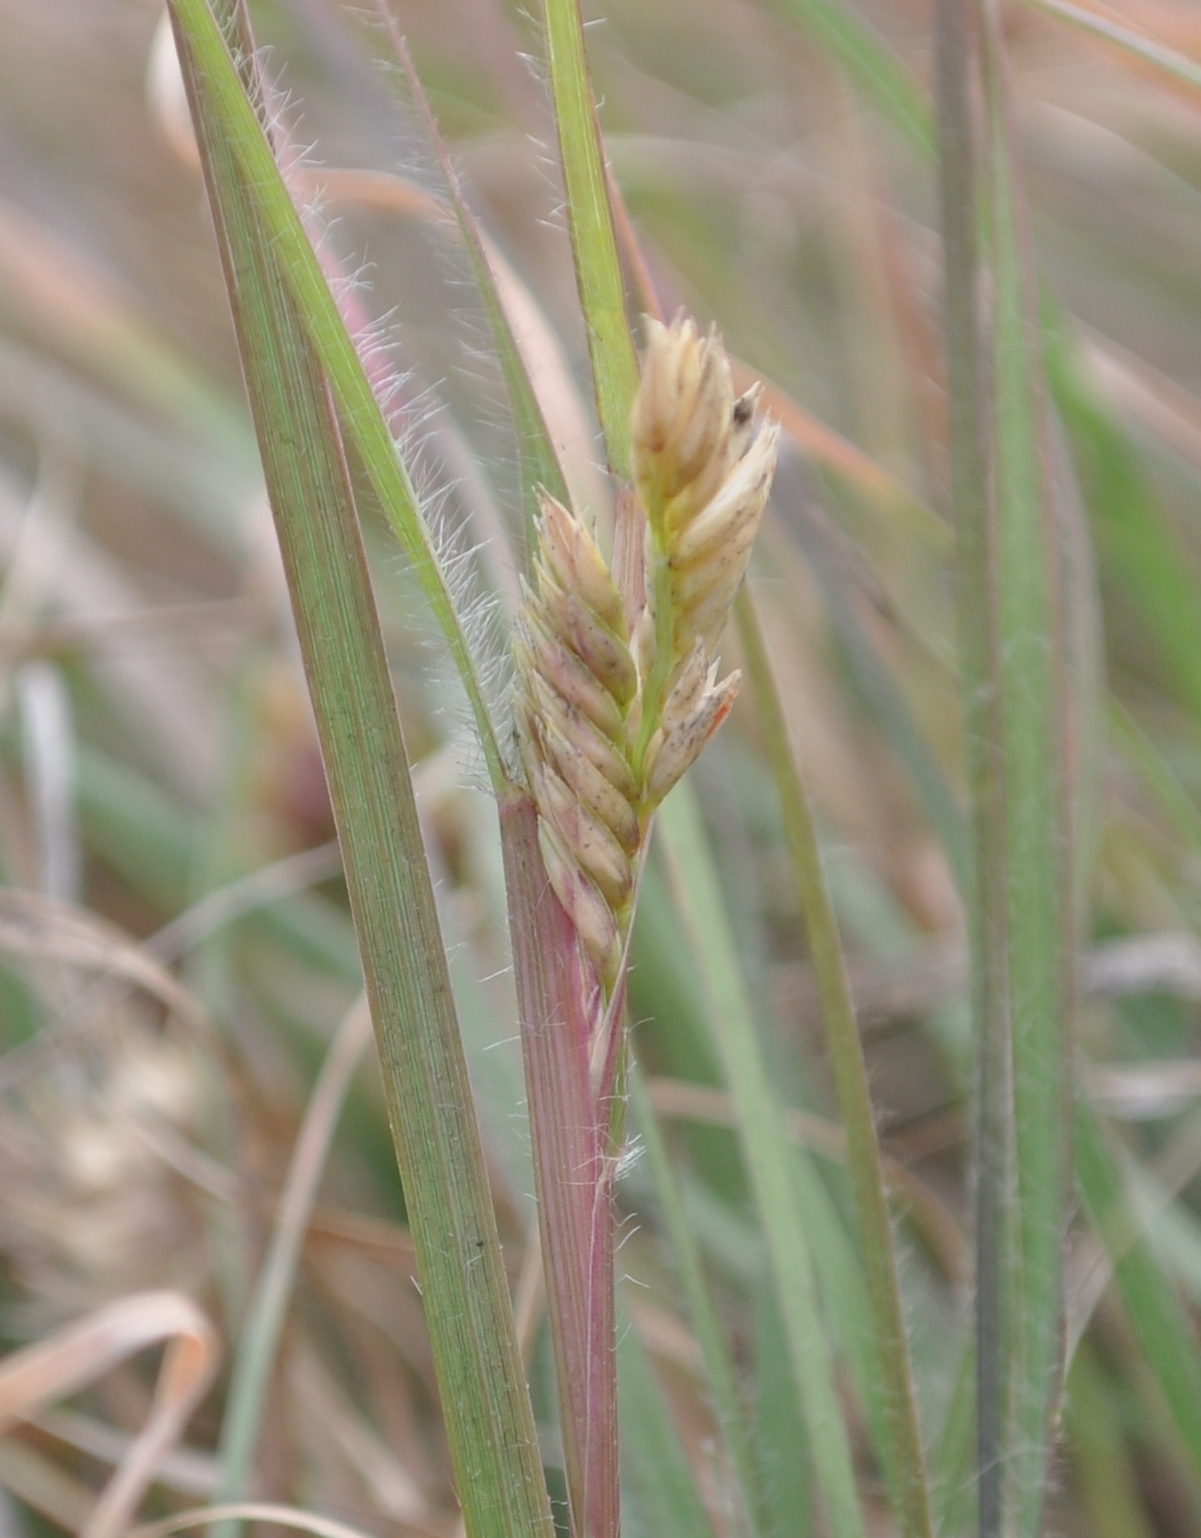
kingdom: Plantae
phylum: Tracheophyta
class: Liliopsida
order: Poales
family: Poaceae
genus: Bouteloua
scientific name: Bouteloua dactyloides
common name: Buffalo grass
